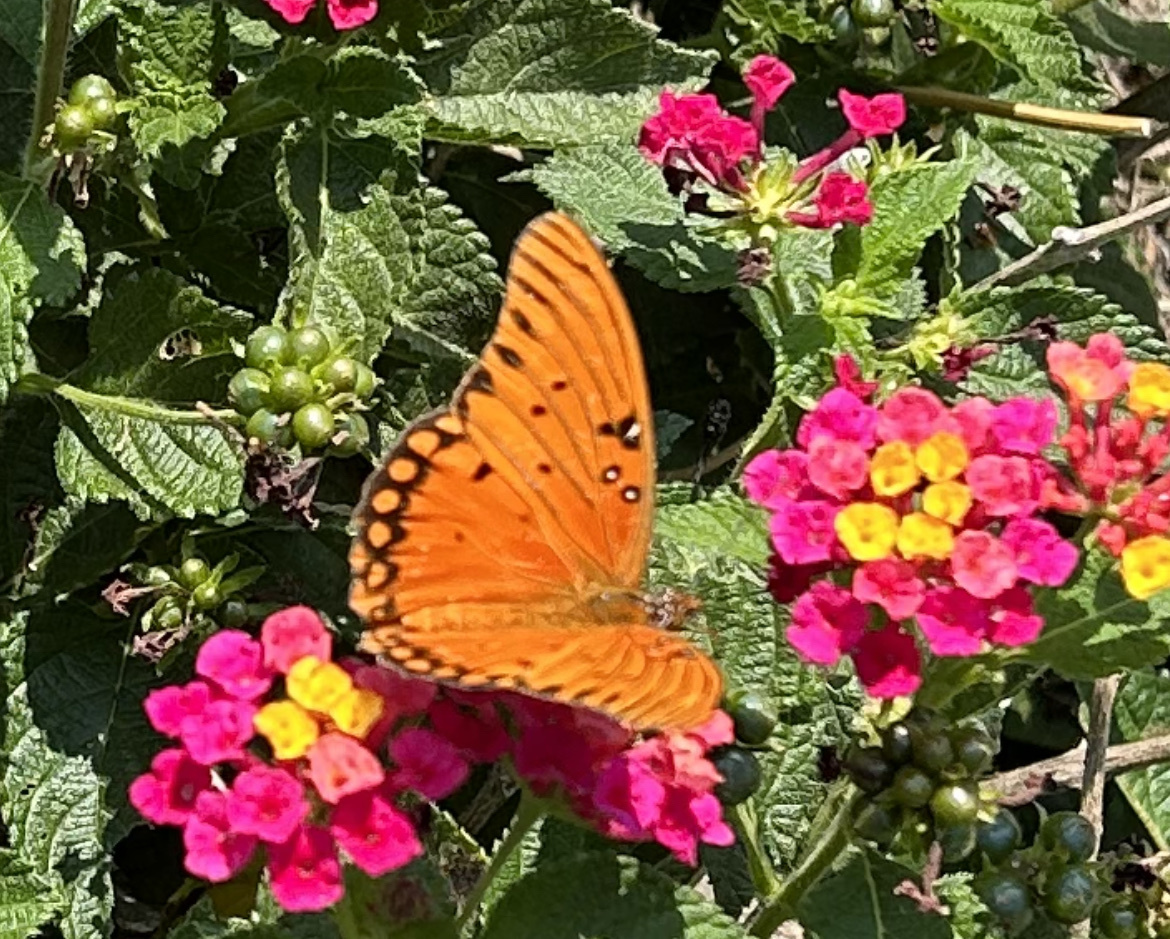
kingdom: Animalia
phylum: Arthropoda
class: Insecta
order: Lepidoptera
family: Nymphalidae
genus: Dione
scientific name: Dione vanillae
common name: Gulf fritillary
